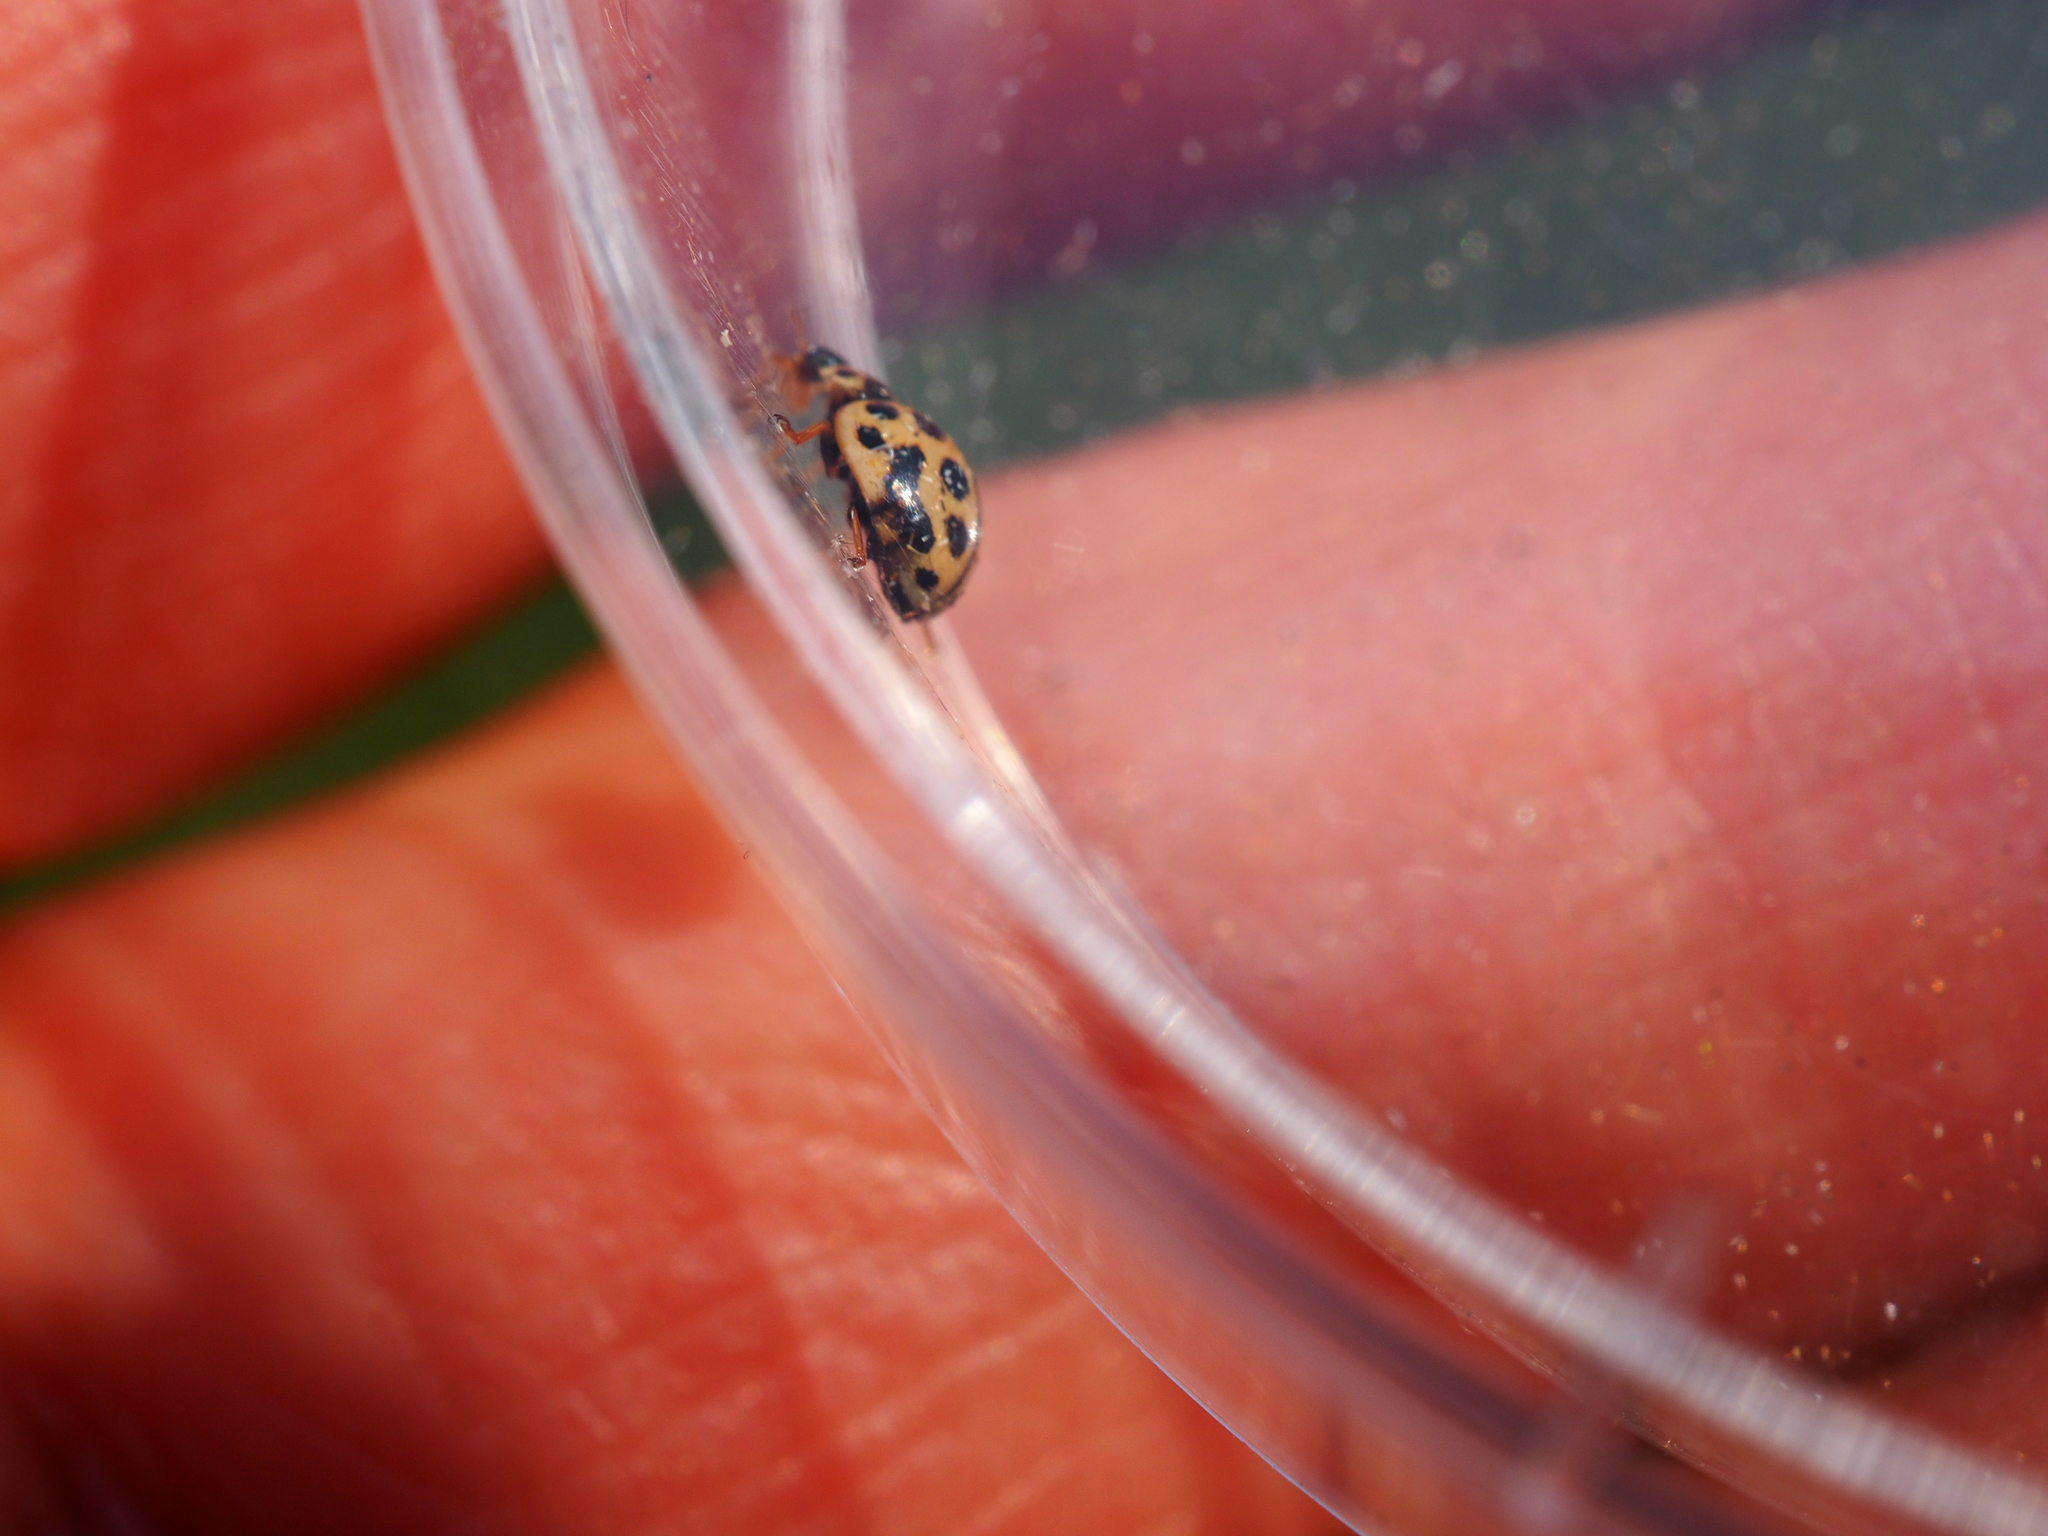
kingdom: Animalia
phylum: Arthropoda
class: Insecta
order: Coleoptera
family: Coccinellidae
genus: Tytthaspis
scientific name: Tytthaspis sedecimpunctata
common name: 16-spot ladybird
